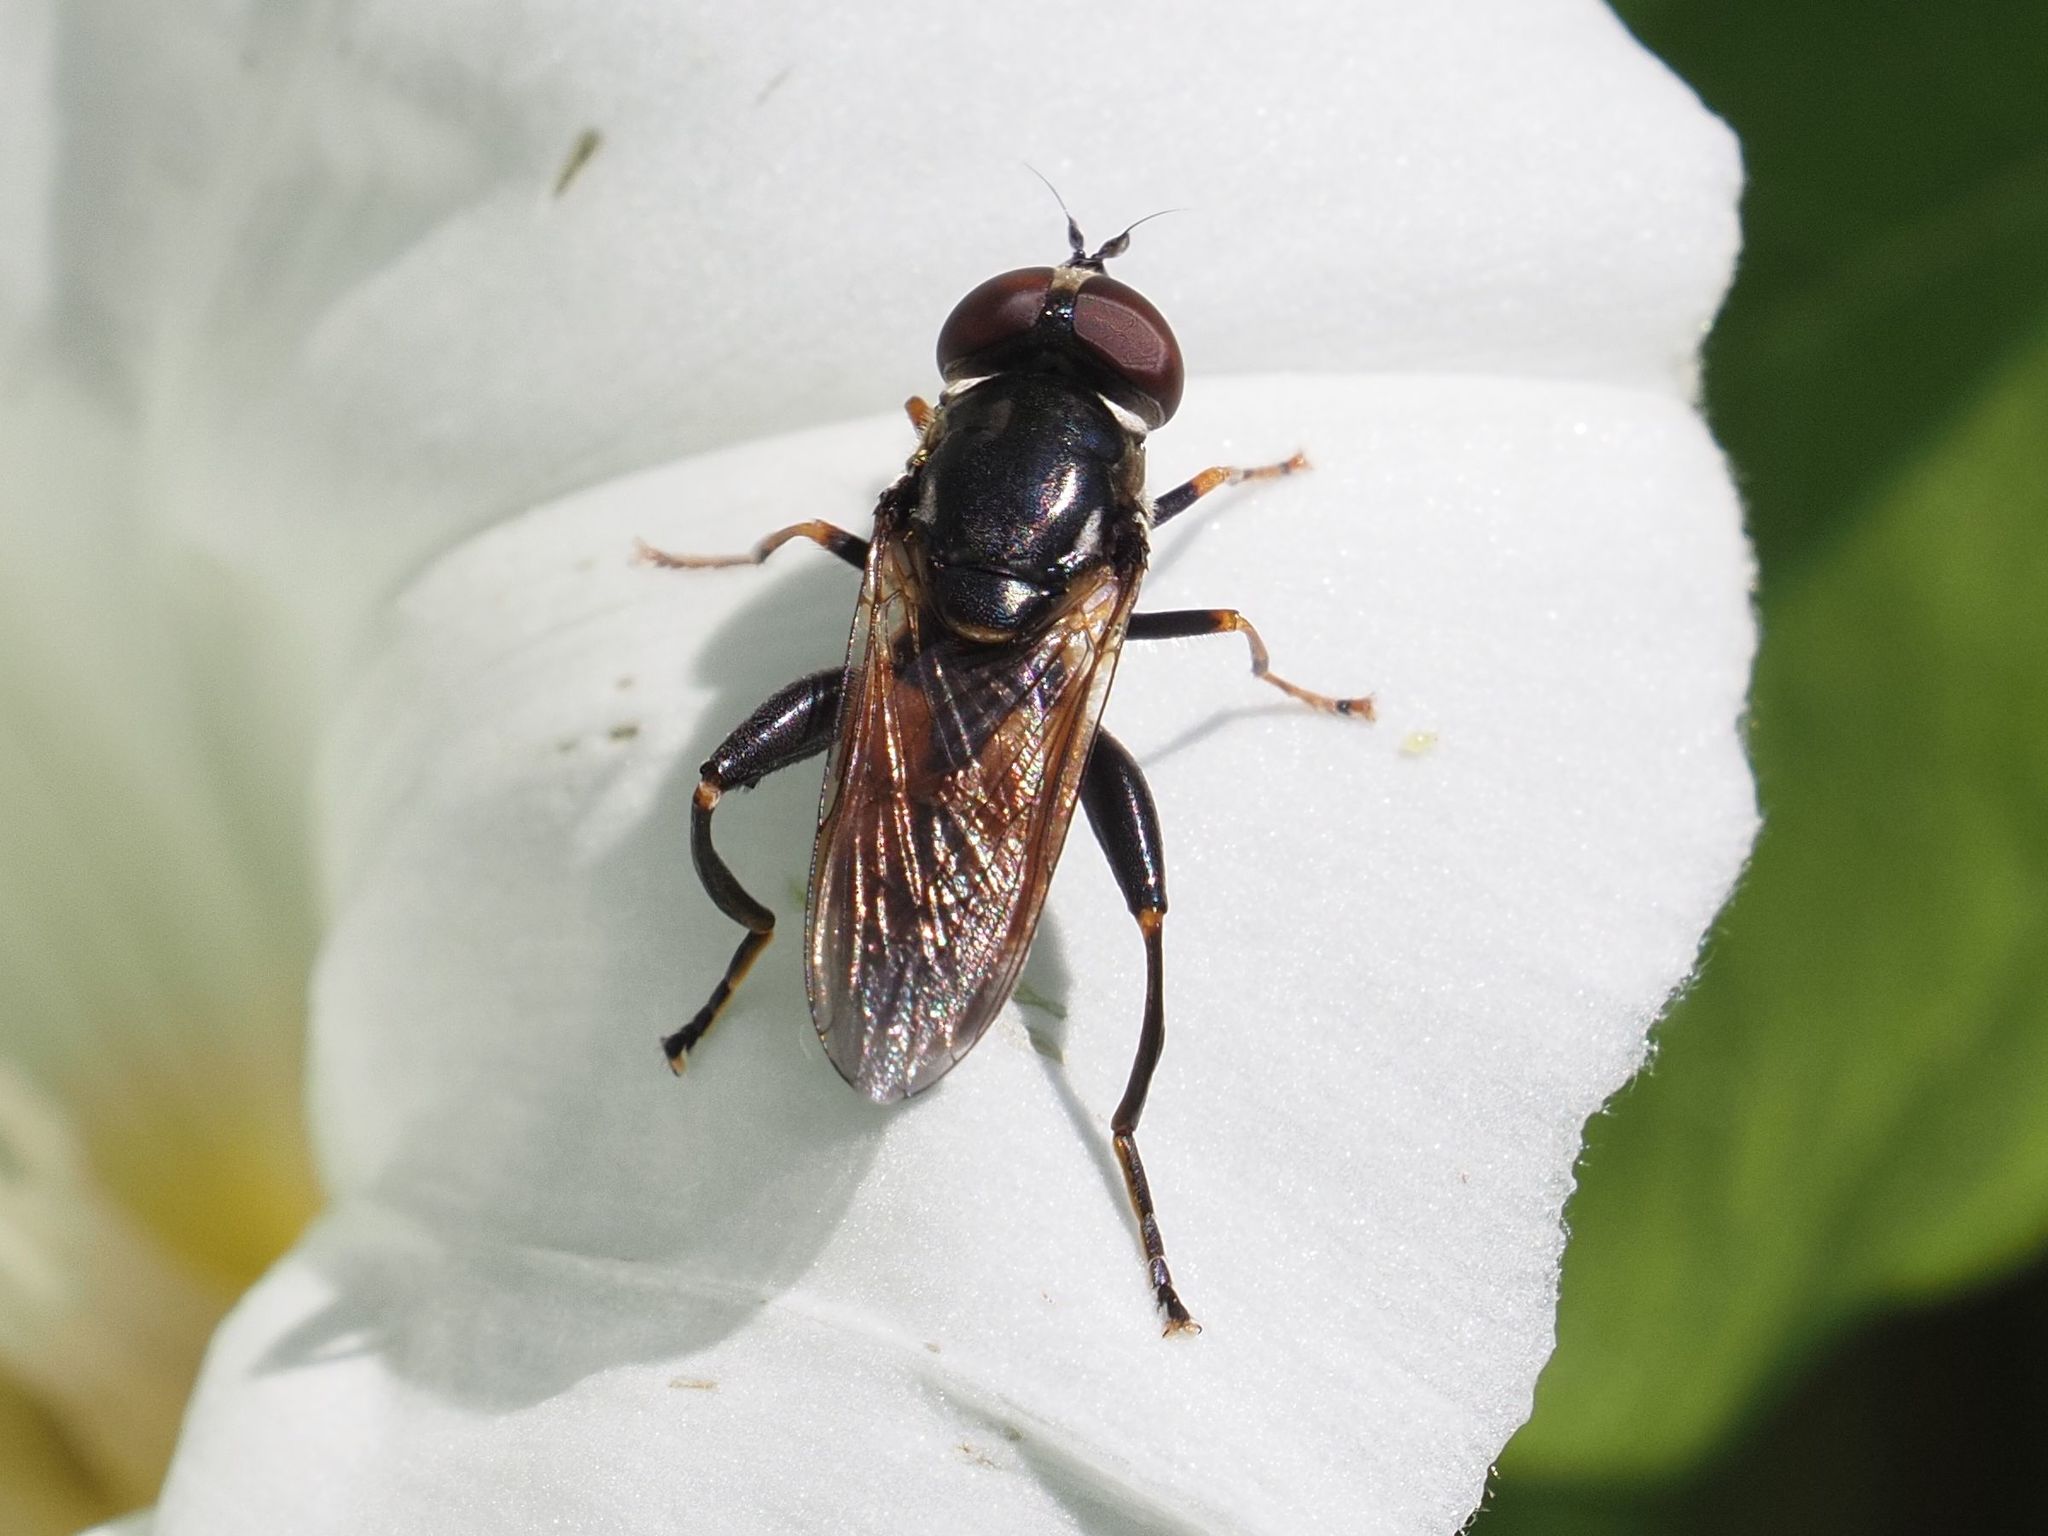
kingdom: Animalia
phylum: Arthropoda
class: Insecta
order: Diptera
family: Syrphidae
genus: Tropidia
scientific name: Tropidia scita
